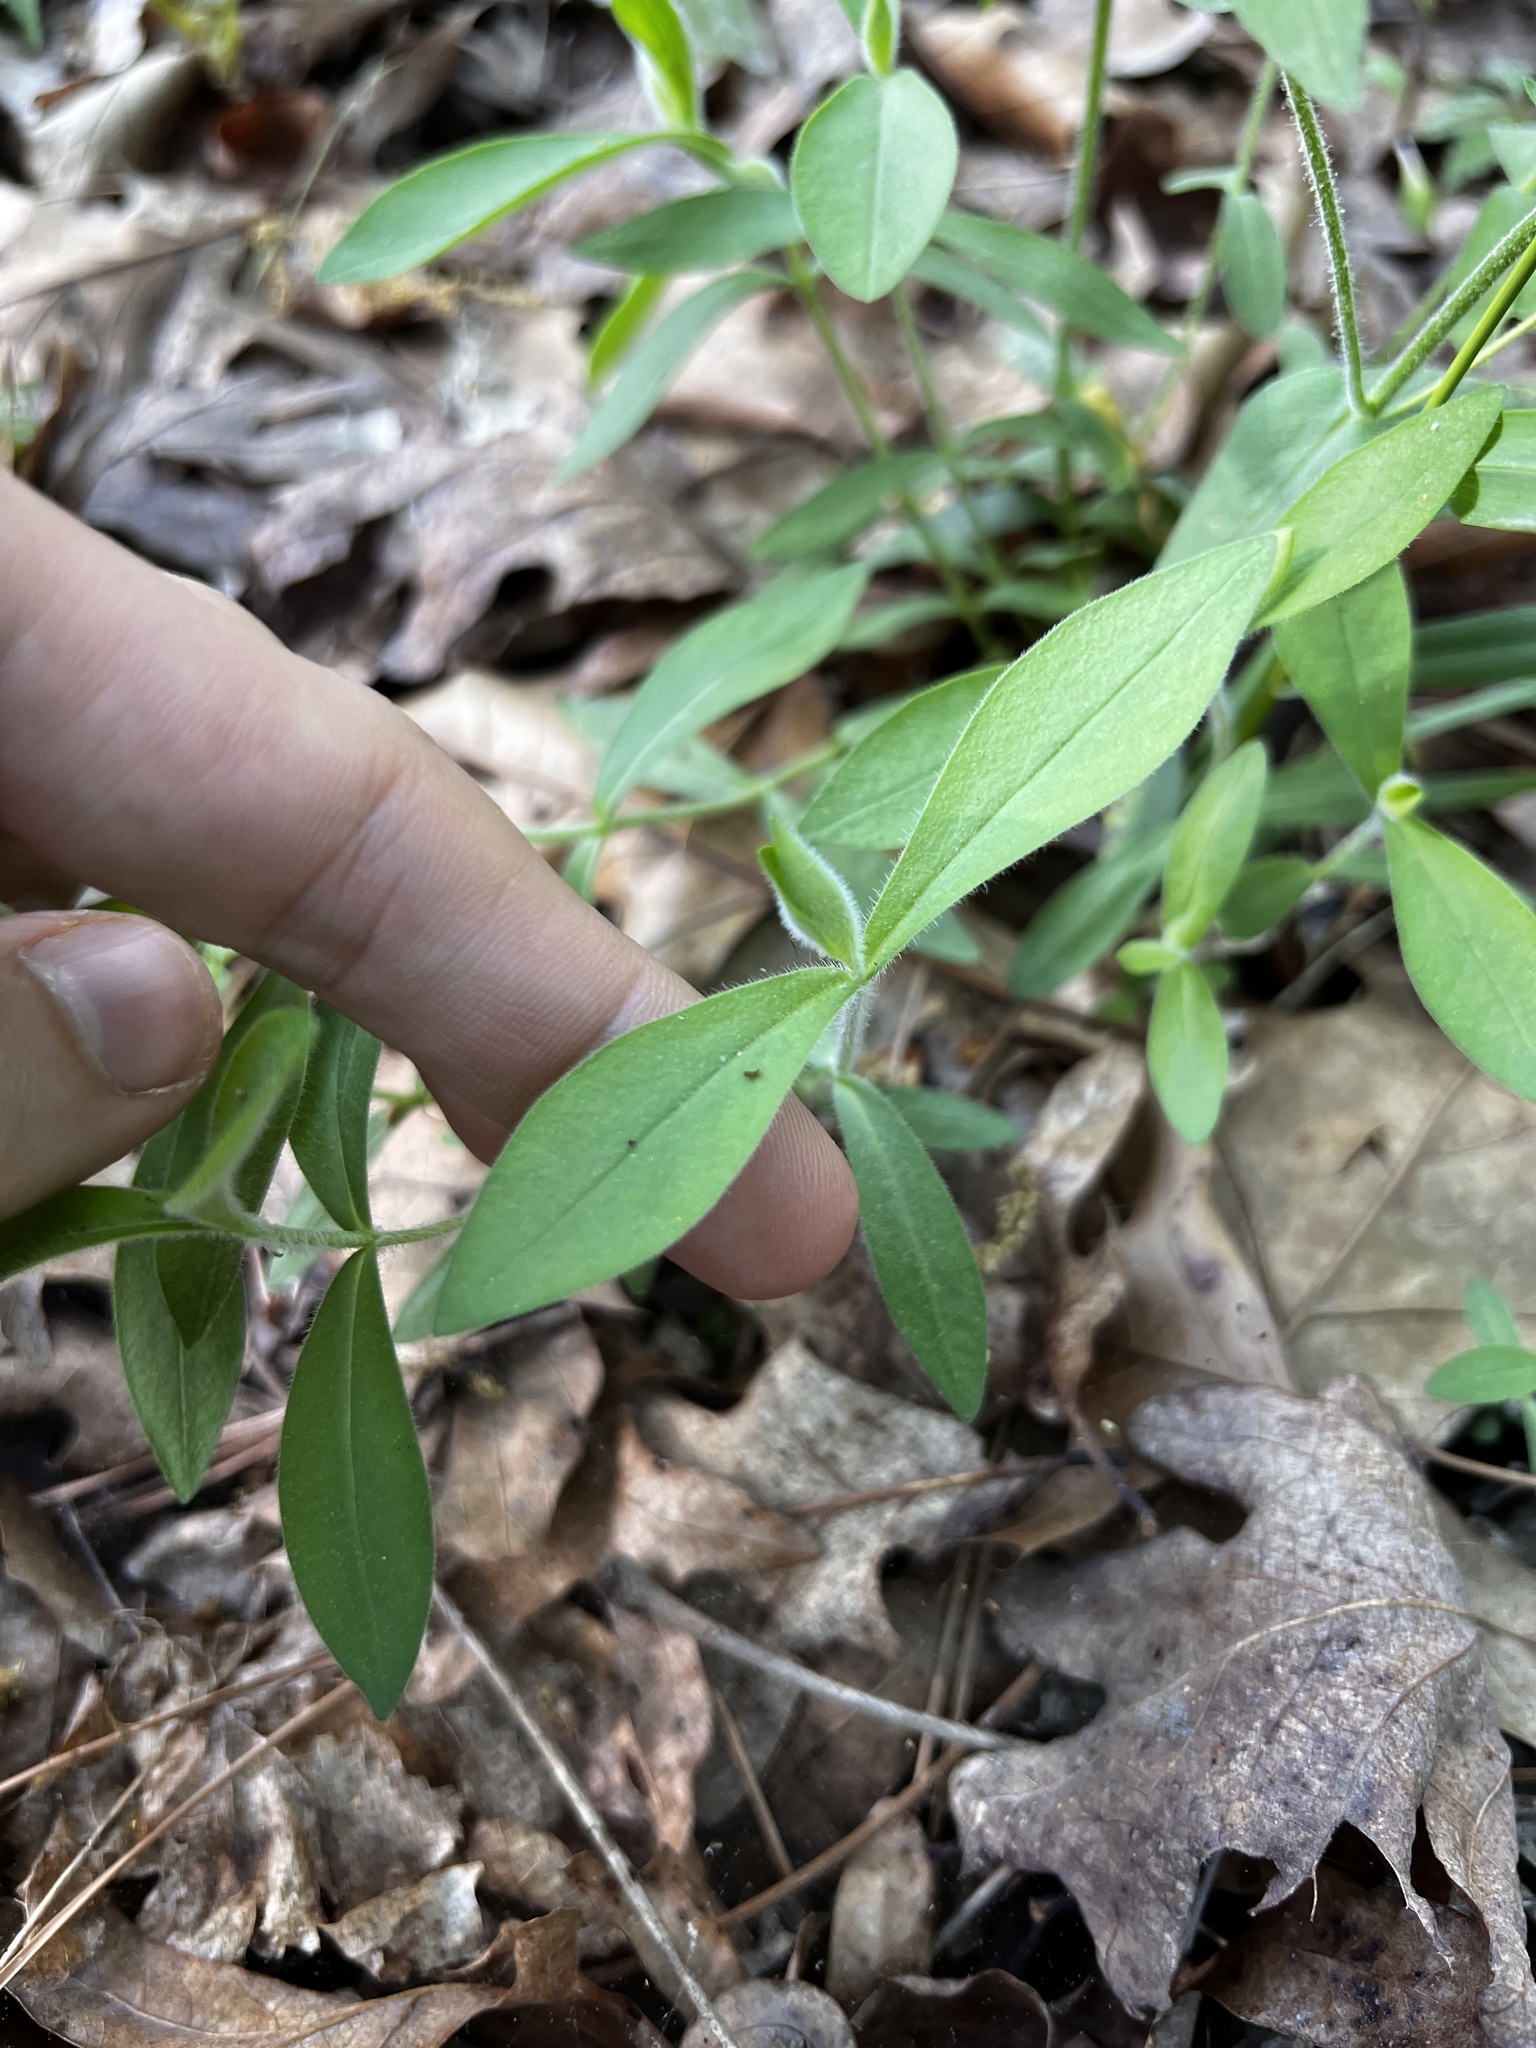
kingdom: Plantae
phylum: Tracheophyta
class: Magnoliopsida
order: Ericales
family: Polemoniaceae
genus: Phlox
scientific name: Phlox divaricata
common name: Blue phlox
